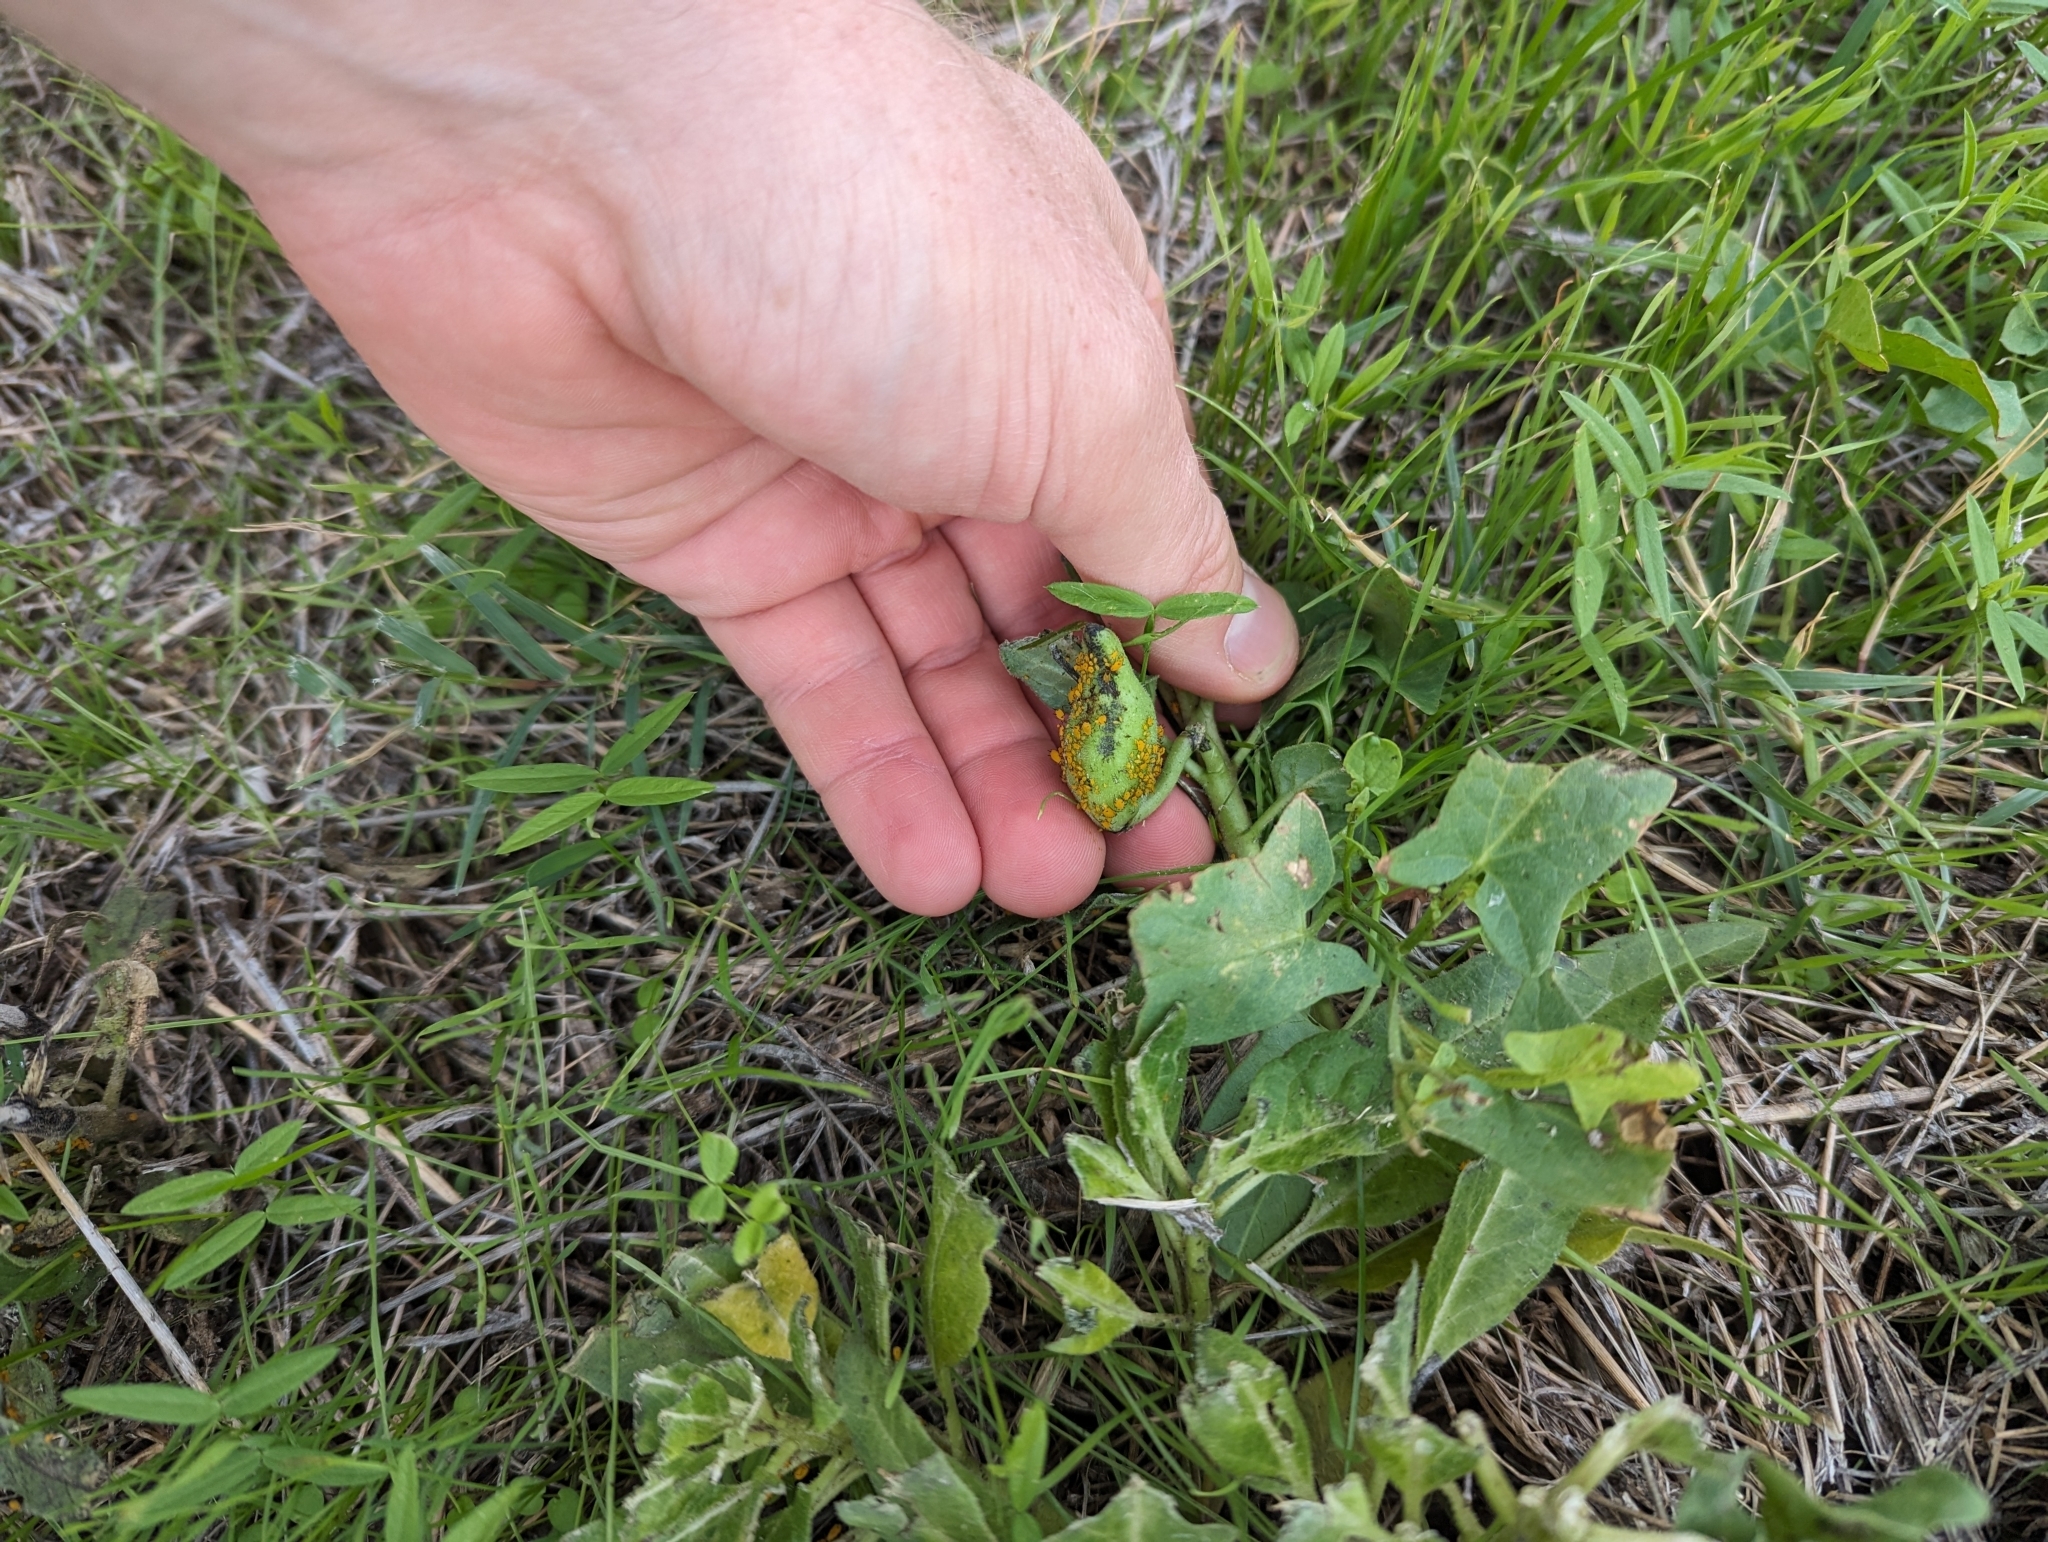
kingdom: Plantae
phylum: Tracheophyta
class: Magnoliopsida
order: Gentianales
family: Apocynaceae
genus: Asclepias
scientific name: Asclepias oenotheroides
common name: Zizotes milkweed
